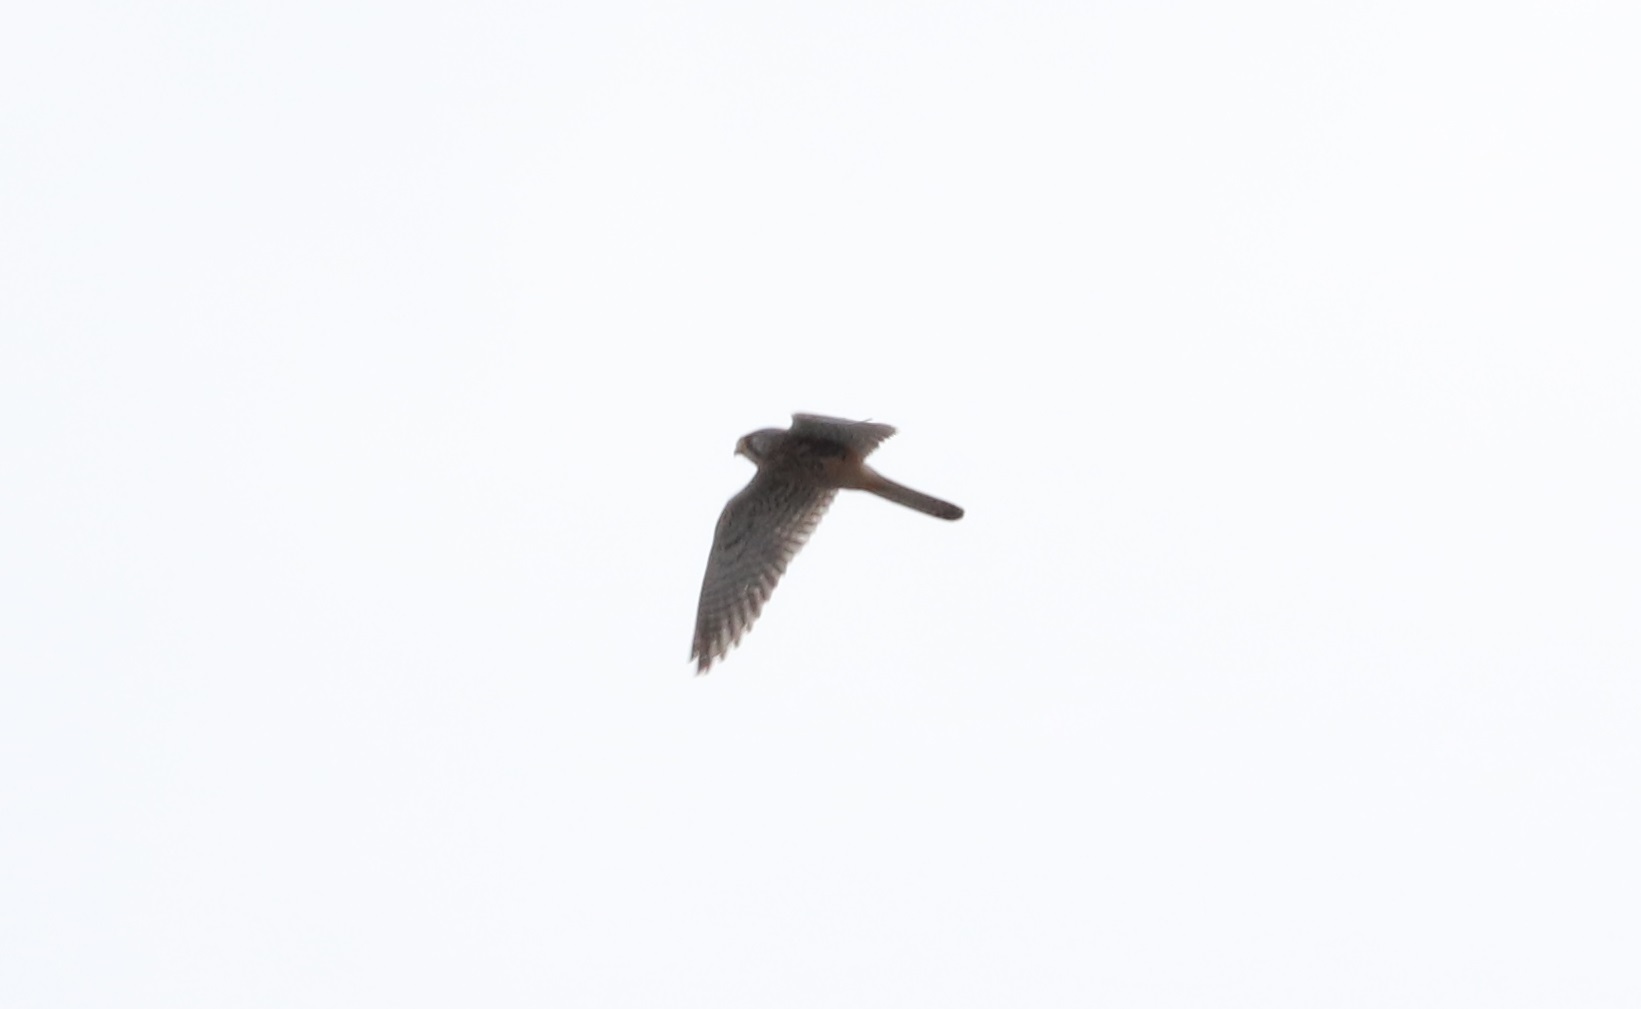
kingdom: Animalia
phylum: Chordata
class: Aves
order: Falconiformes
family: Falconidae
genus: Falco
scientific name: Falco tinnunculus
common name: Common kestrel
